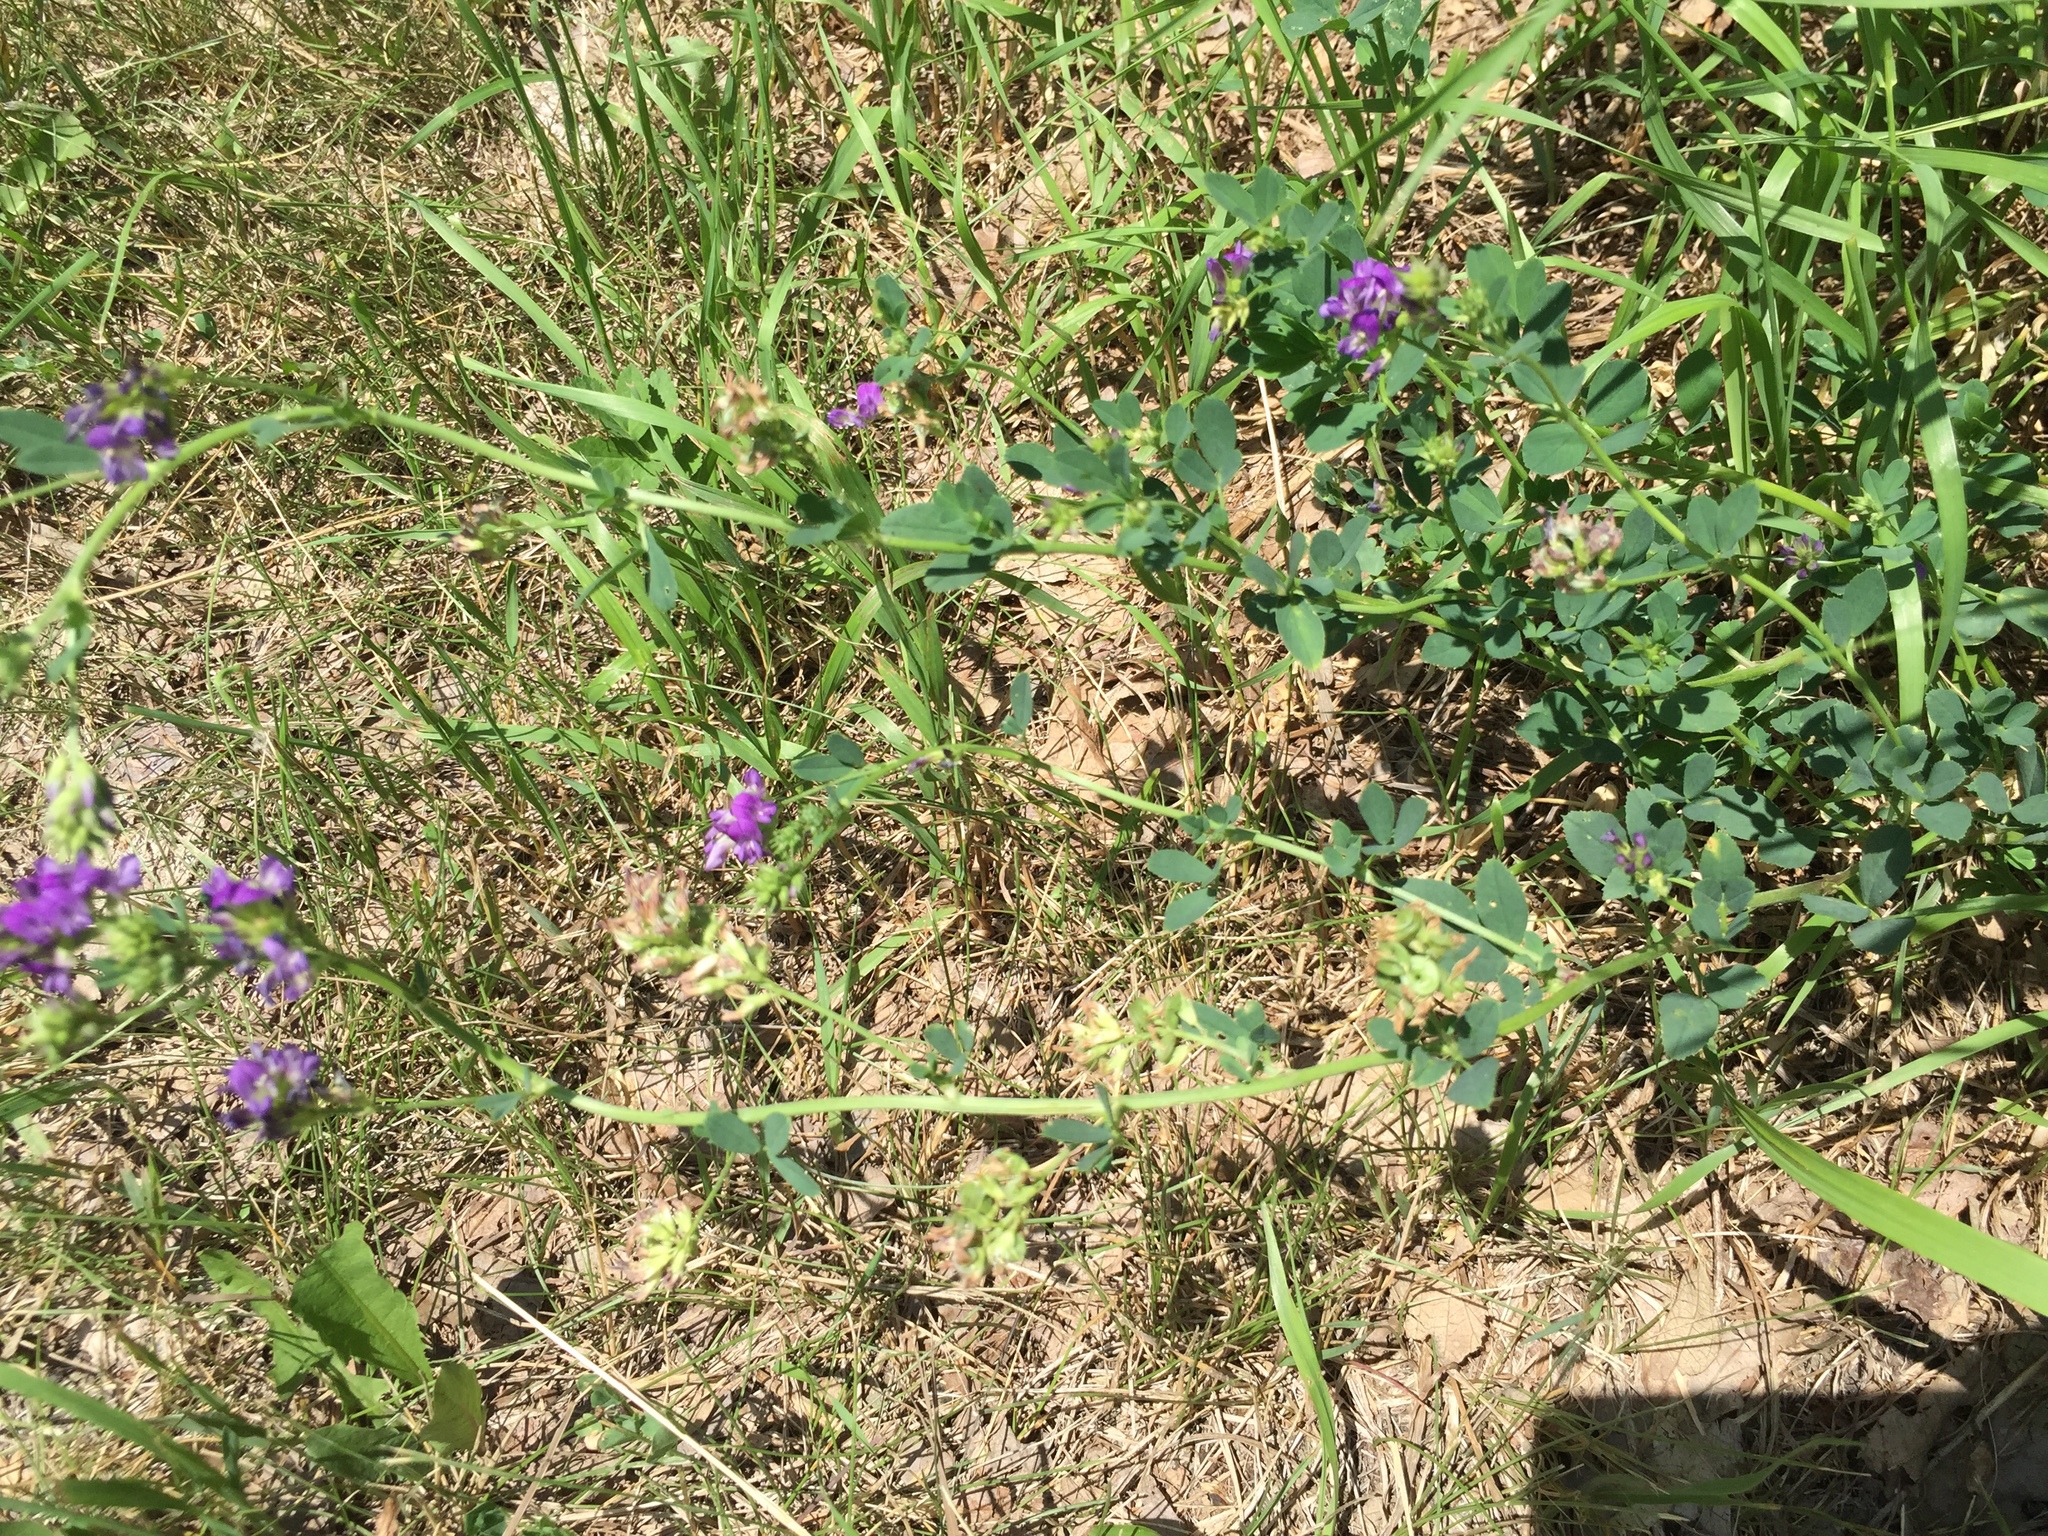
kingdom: Plantae
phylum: Tracheophyta
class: Magnoliopsida
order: Fabales
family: Fabaceae
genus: Medicago
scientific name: Medicago sativa
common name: Alfalfa
